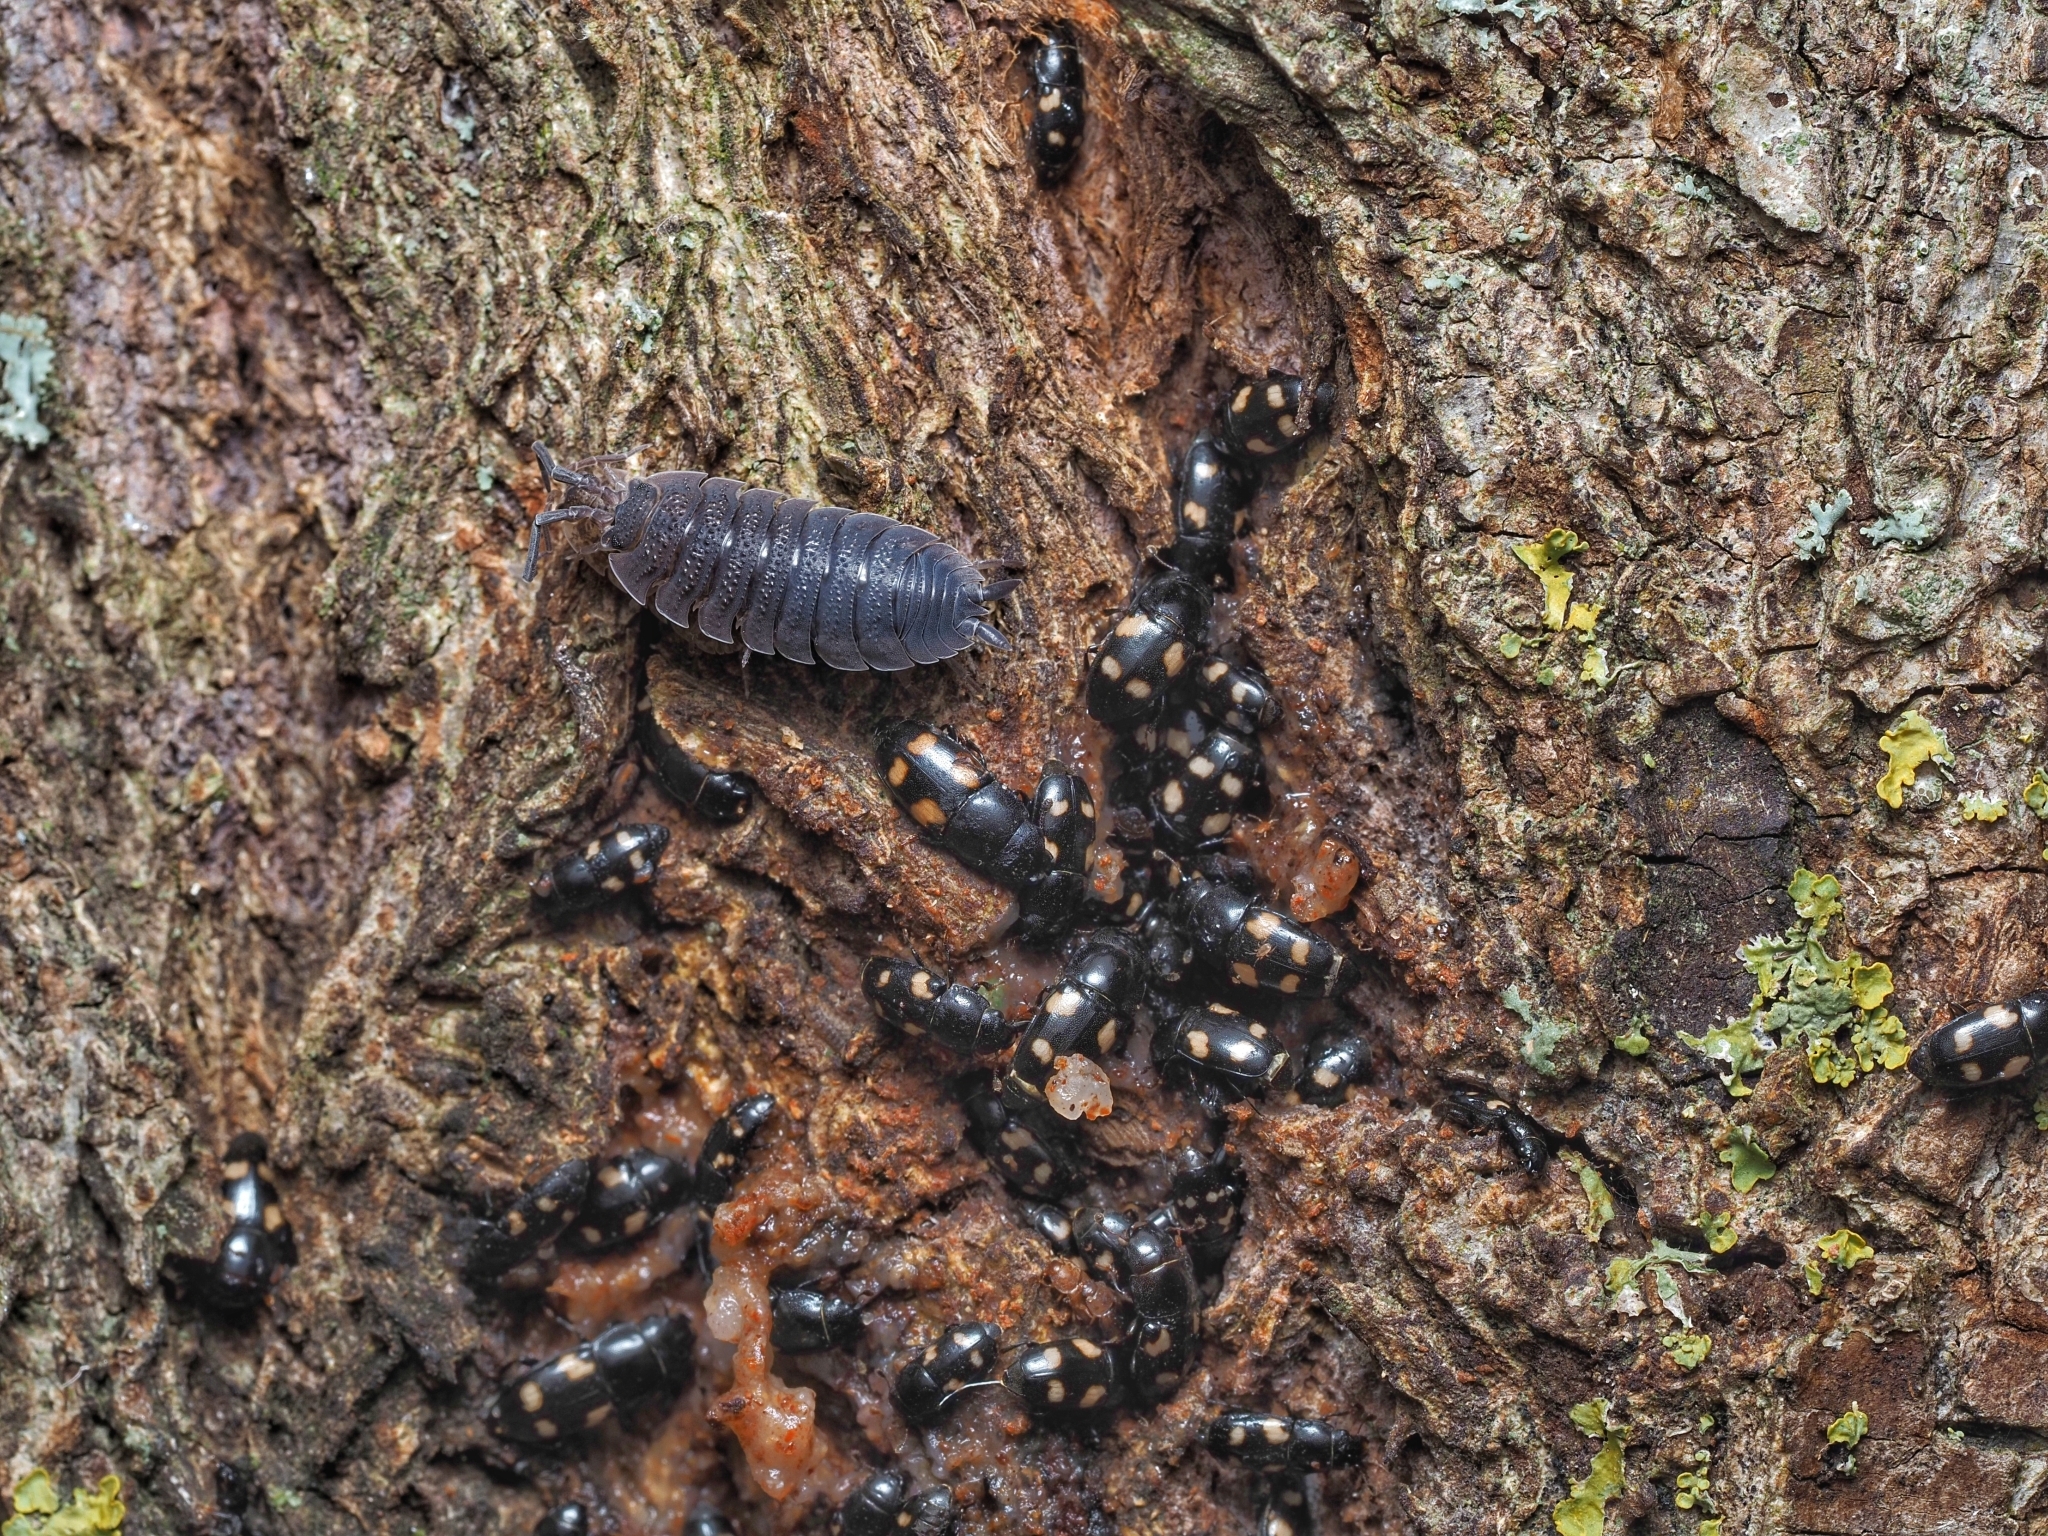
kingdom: Animalia
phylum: Arthropoda
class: Insecta
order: Coleoptera
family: Nitidulidae
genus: Glischrochilus
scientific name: Glischrochilus quadrisignatus
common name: Picnic beetle
